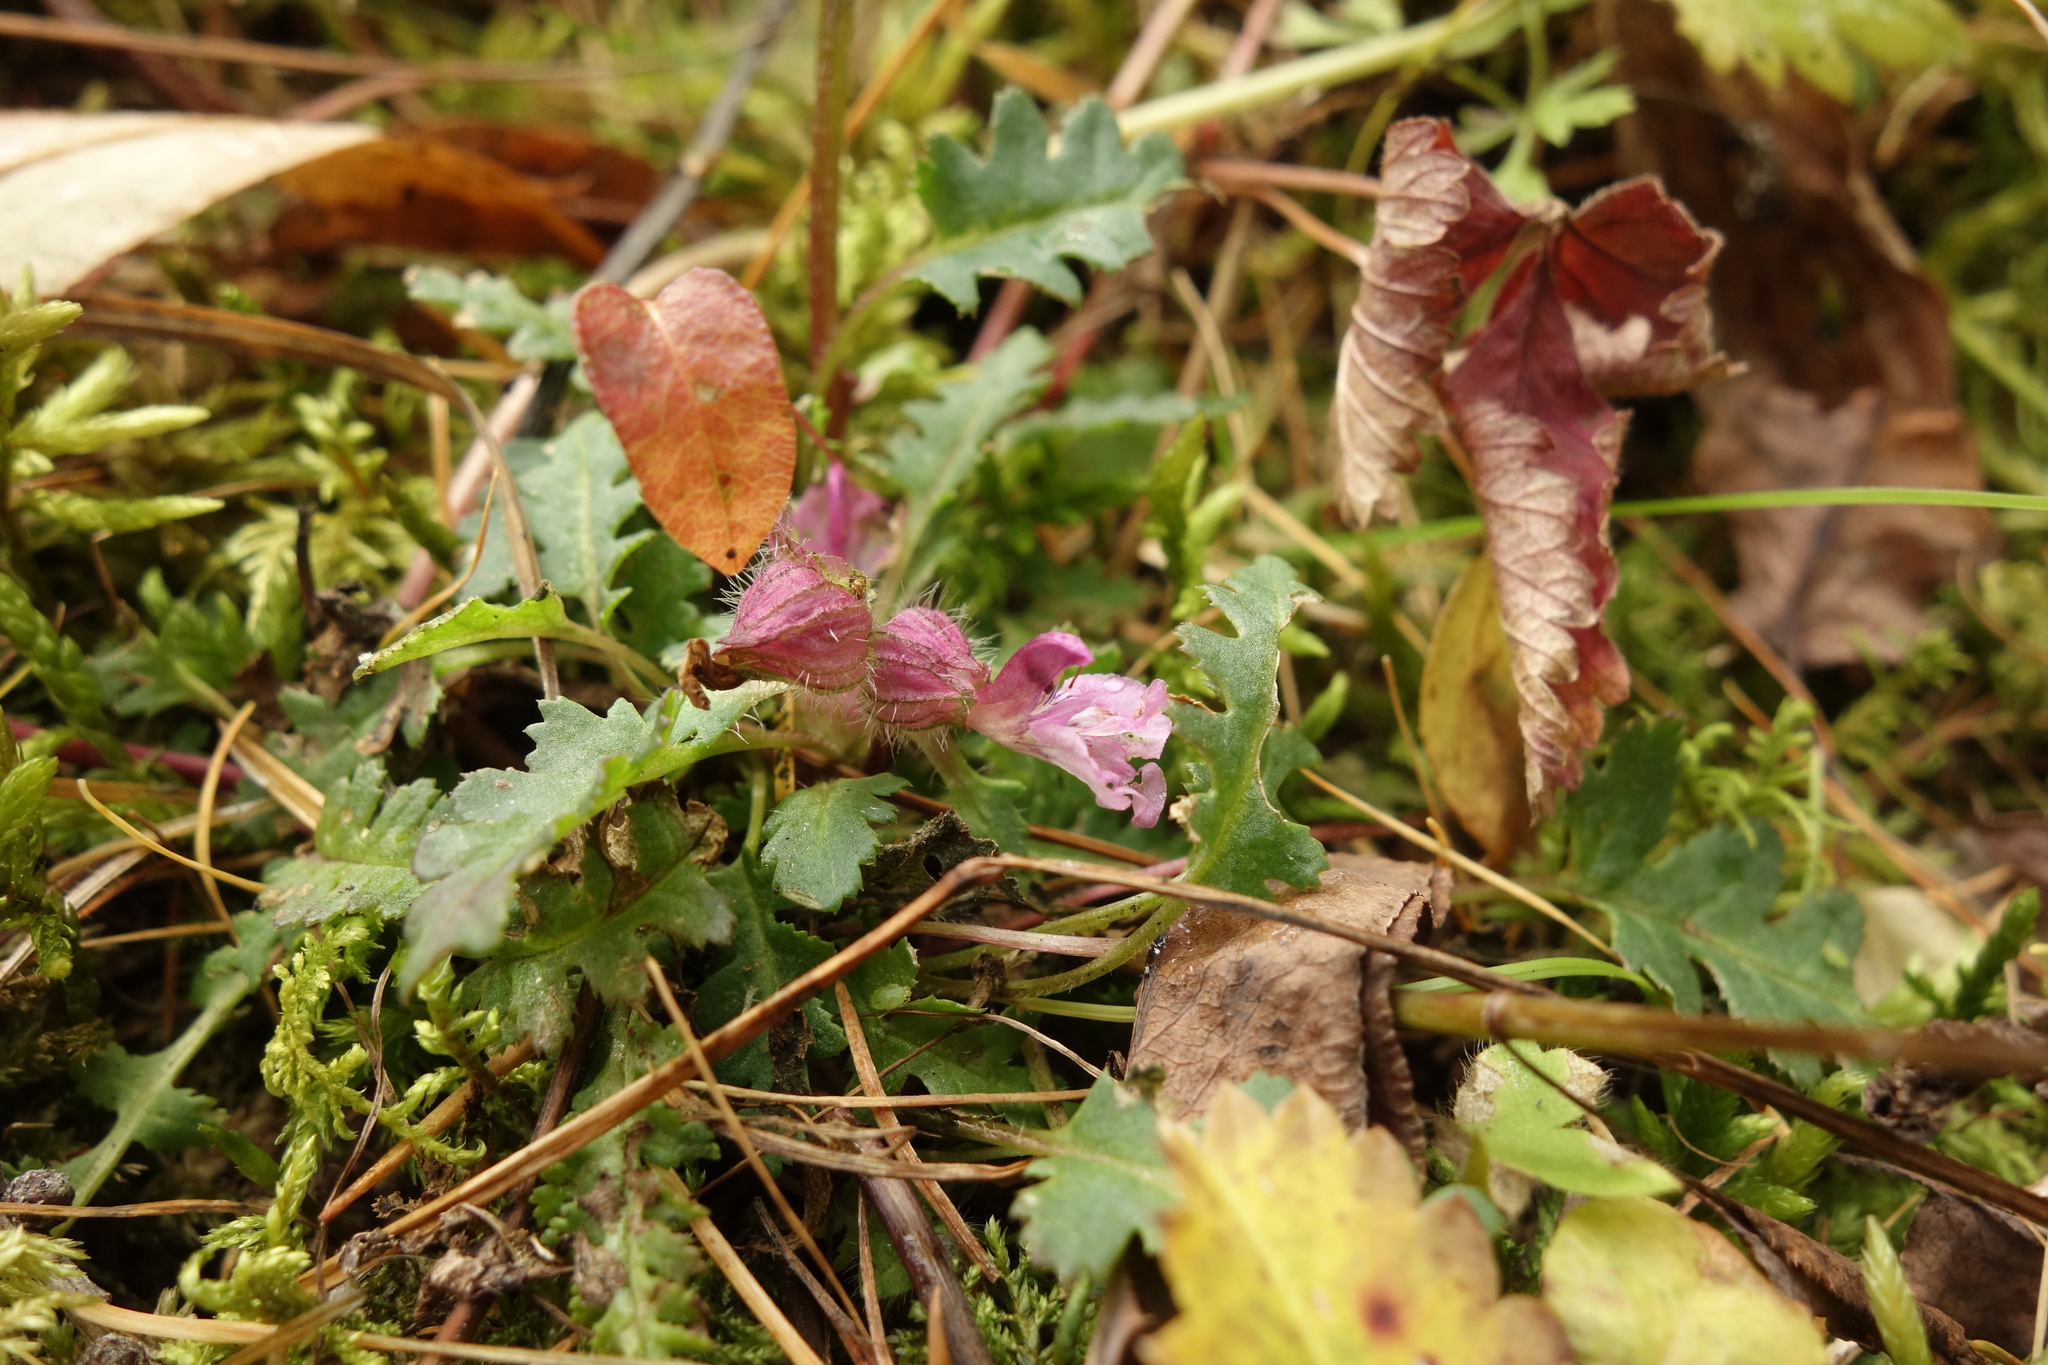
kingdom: Plantae
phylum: Tracheophyta
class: Magnoliopsida
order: Lamiales
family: Orobanchaceae
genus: Pedicularis
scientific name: Pedicularis verticillata
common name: Whorled lousewort
